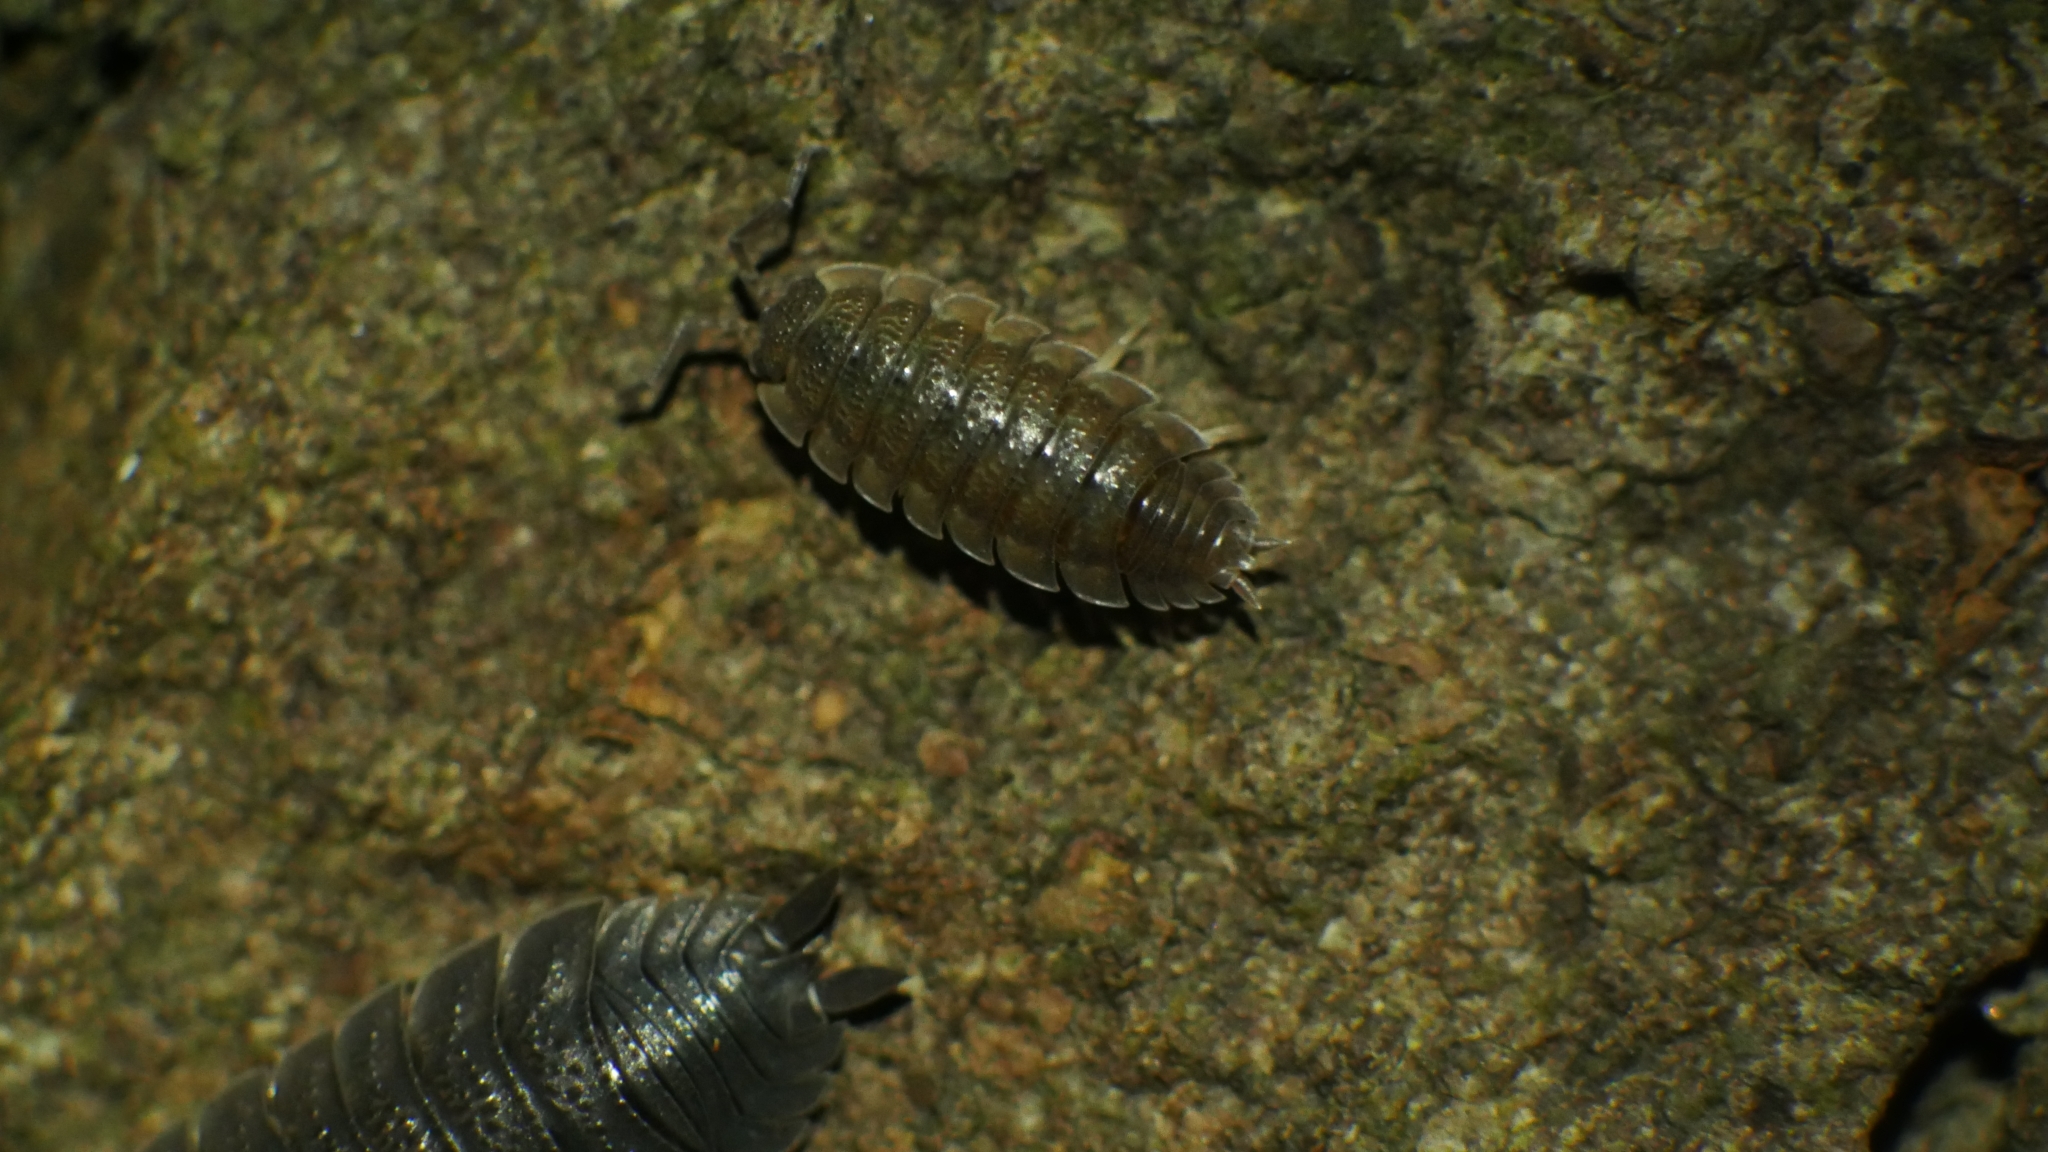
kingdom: Animalia
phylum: Arthropoda
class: Malacostraca
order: Isopoda
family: Porcellionidae
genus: Porcellio
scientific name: Porcellio scaber
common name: Common rough woodlouse
